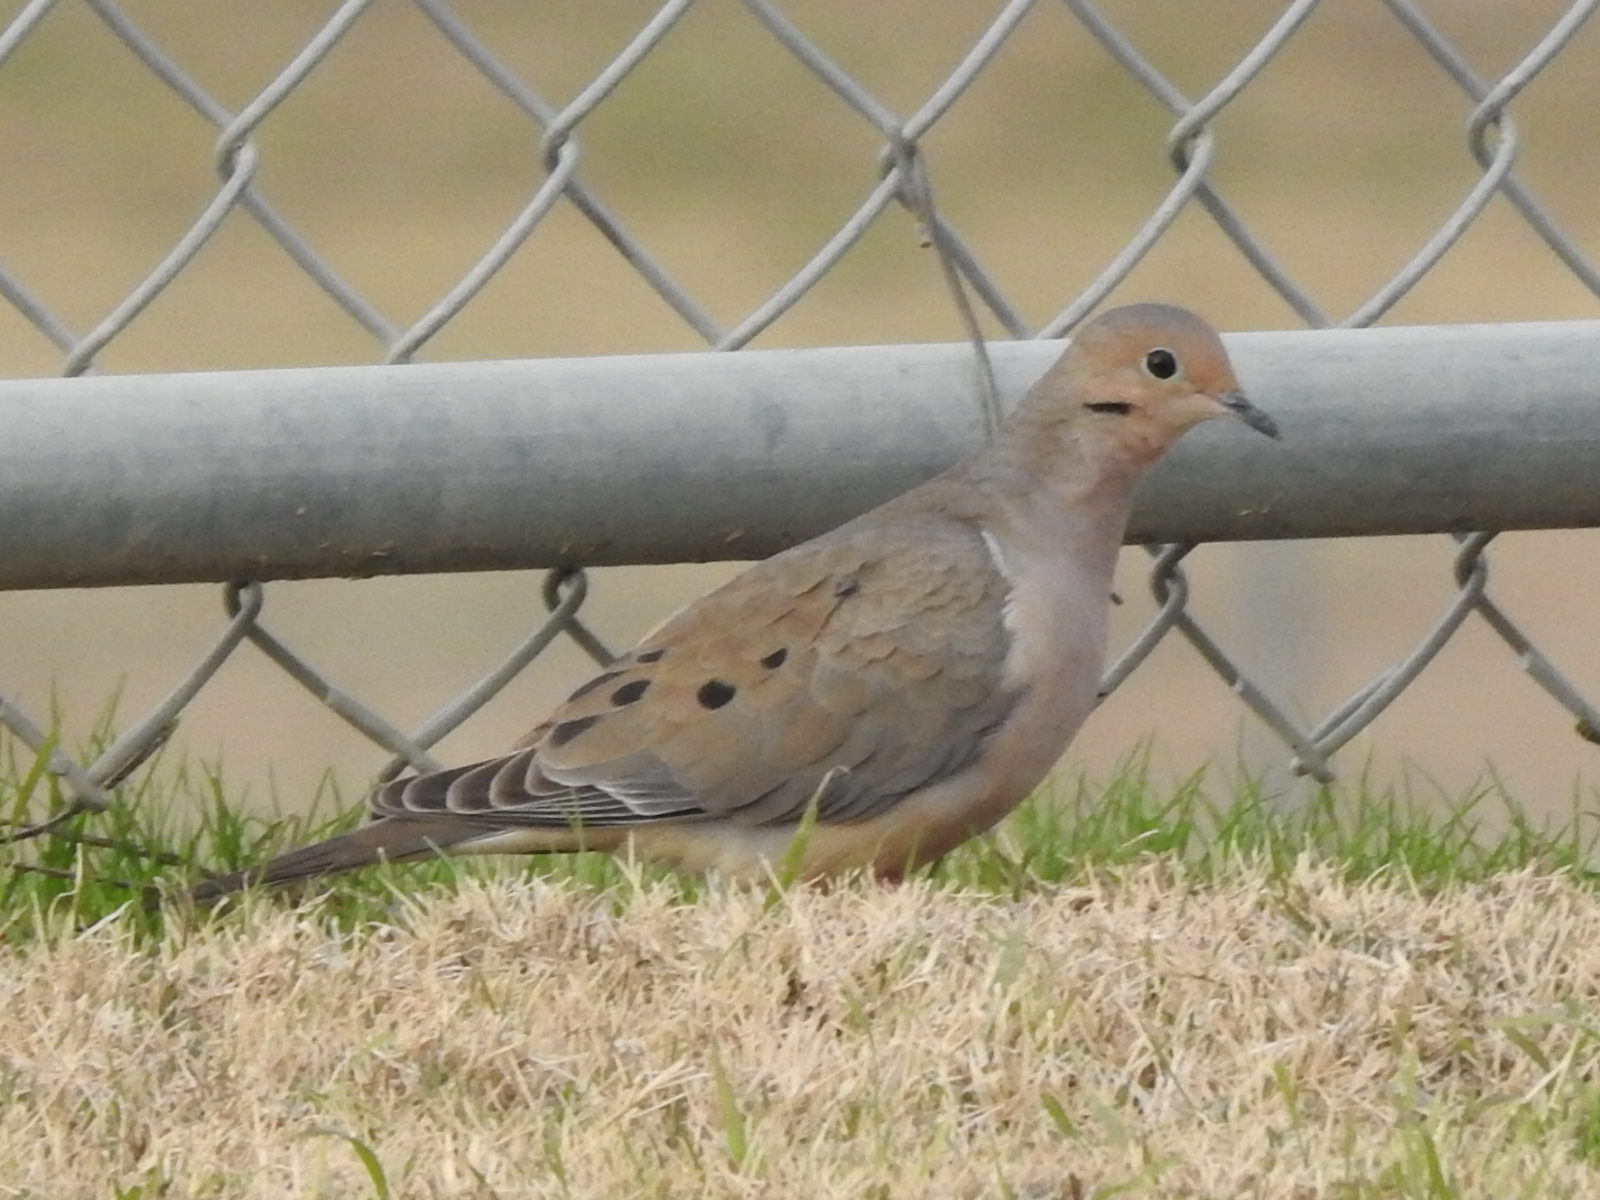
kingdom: Animalia
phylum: Chordata
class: Aves
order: Columbiformes
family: Columbidae
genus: Zenaida
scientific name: Zenaida macroura
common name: Mourning dove
